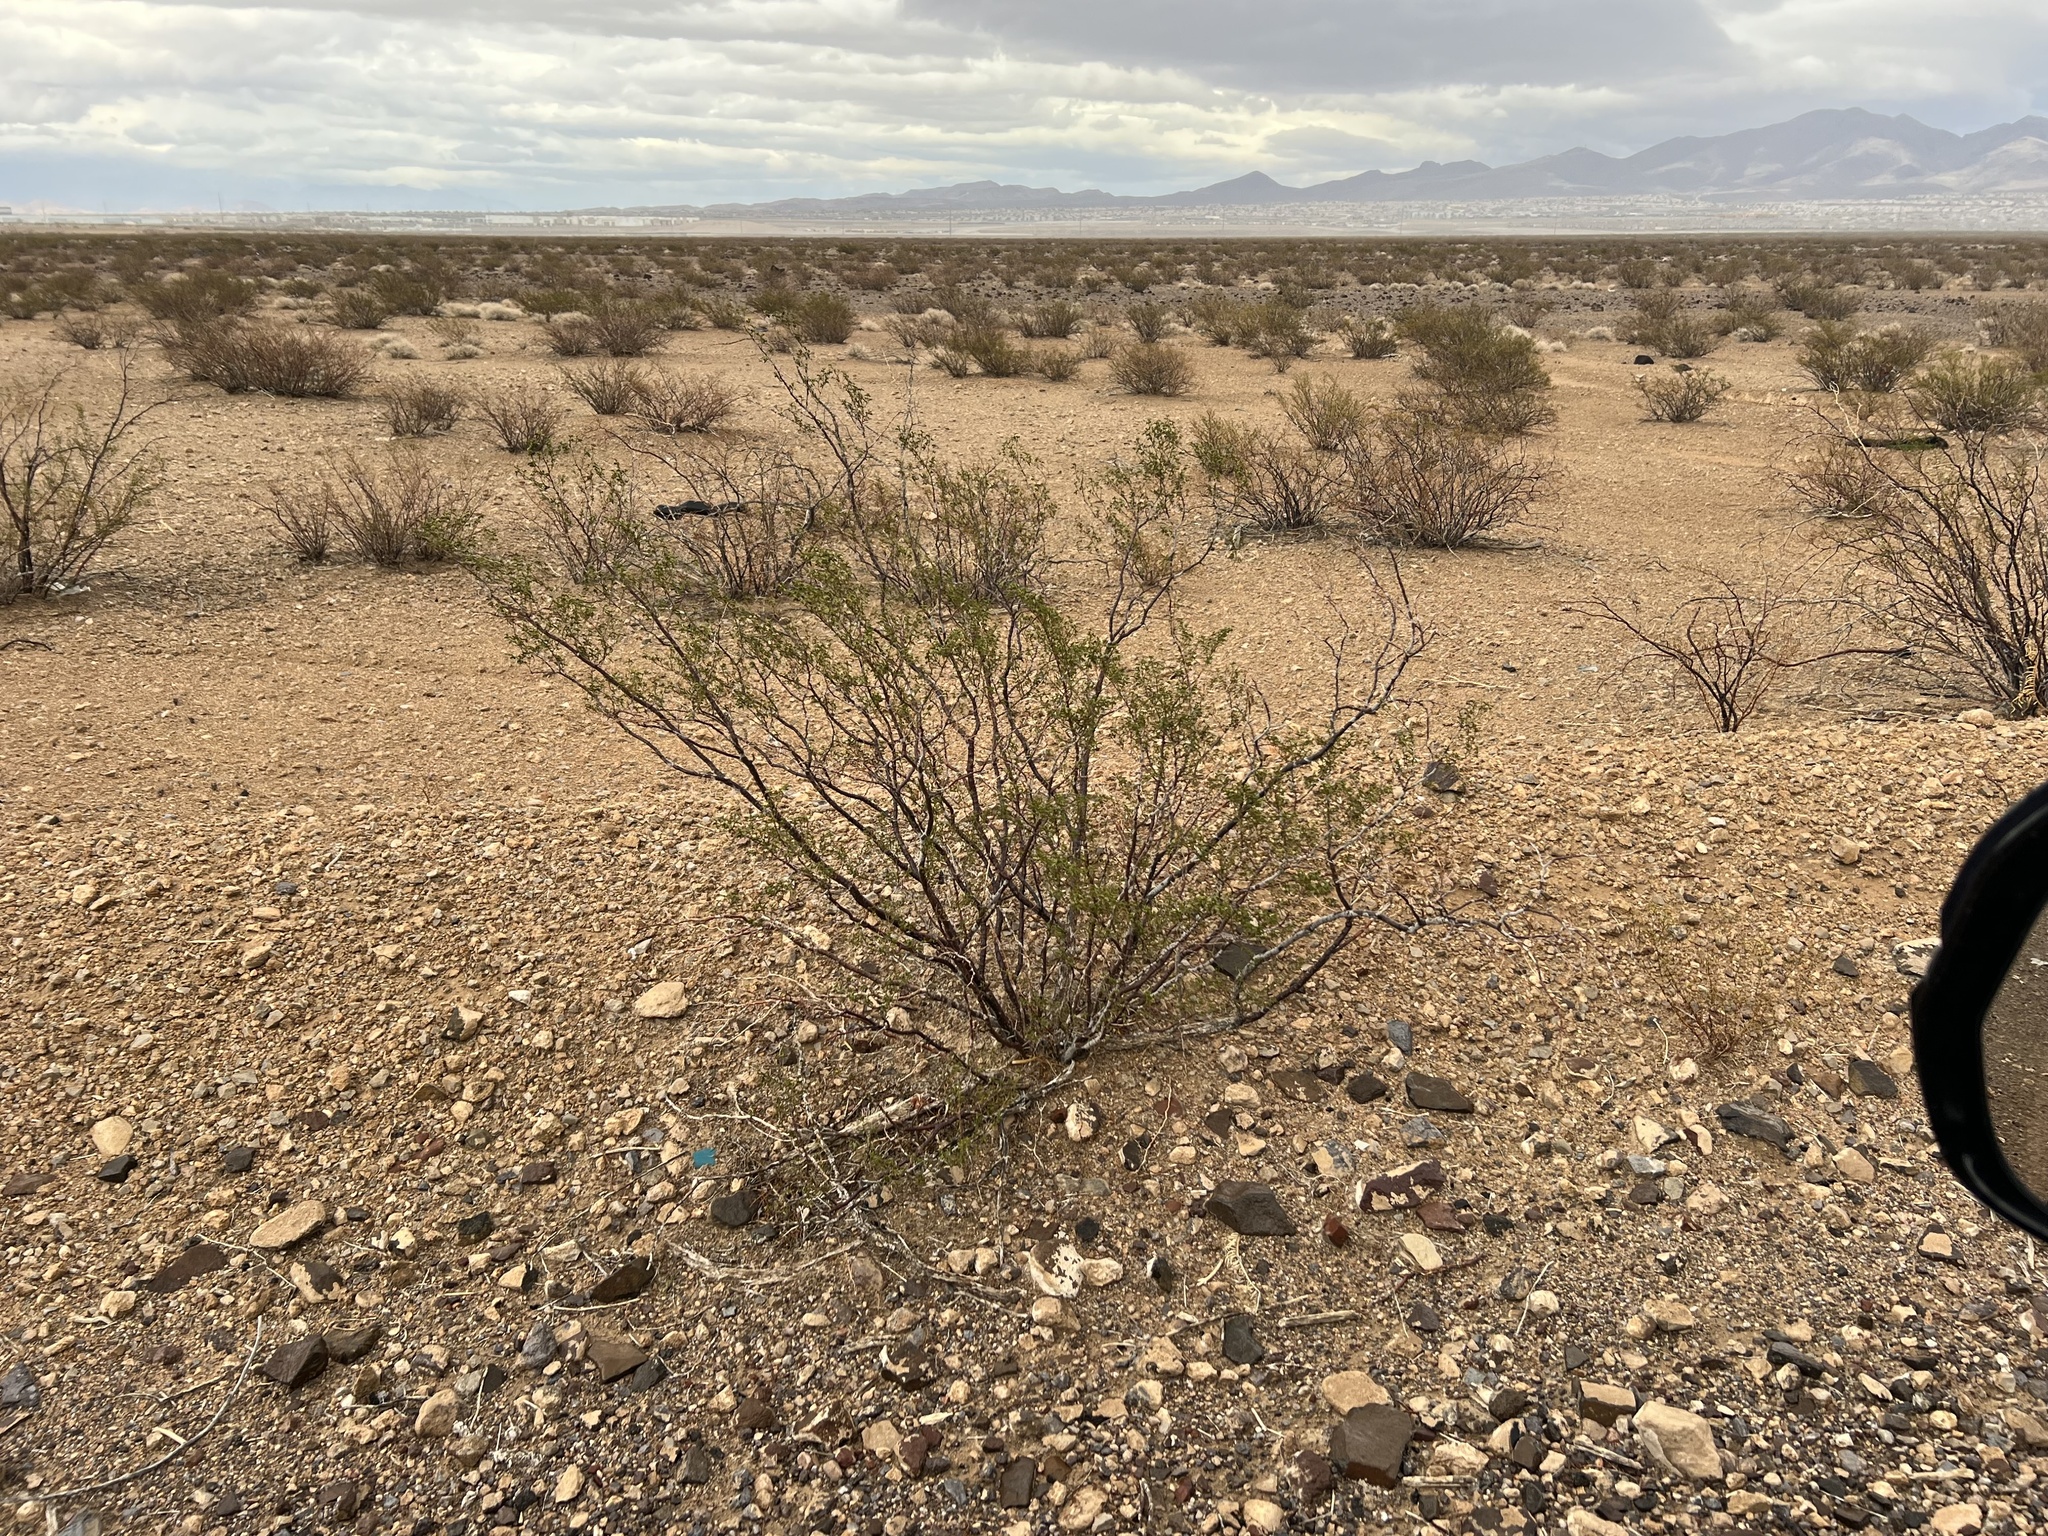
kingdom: Plantae
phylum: Tracheophyta
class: Magnoliopsida
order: Zygophyllales
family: Zygophyllaceae
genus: Larrea
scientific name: Larrea tridentata
